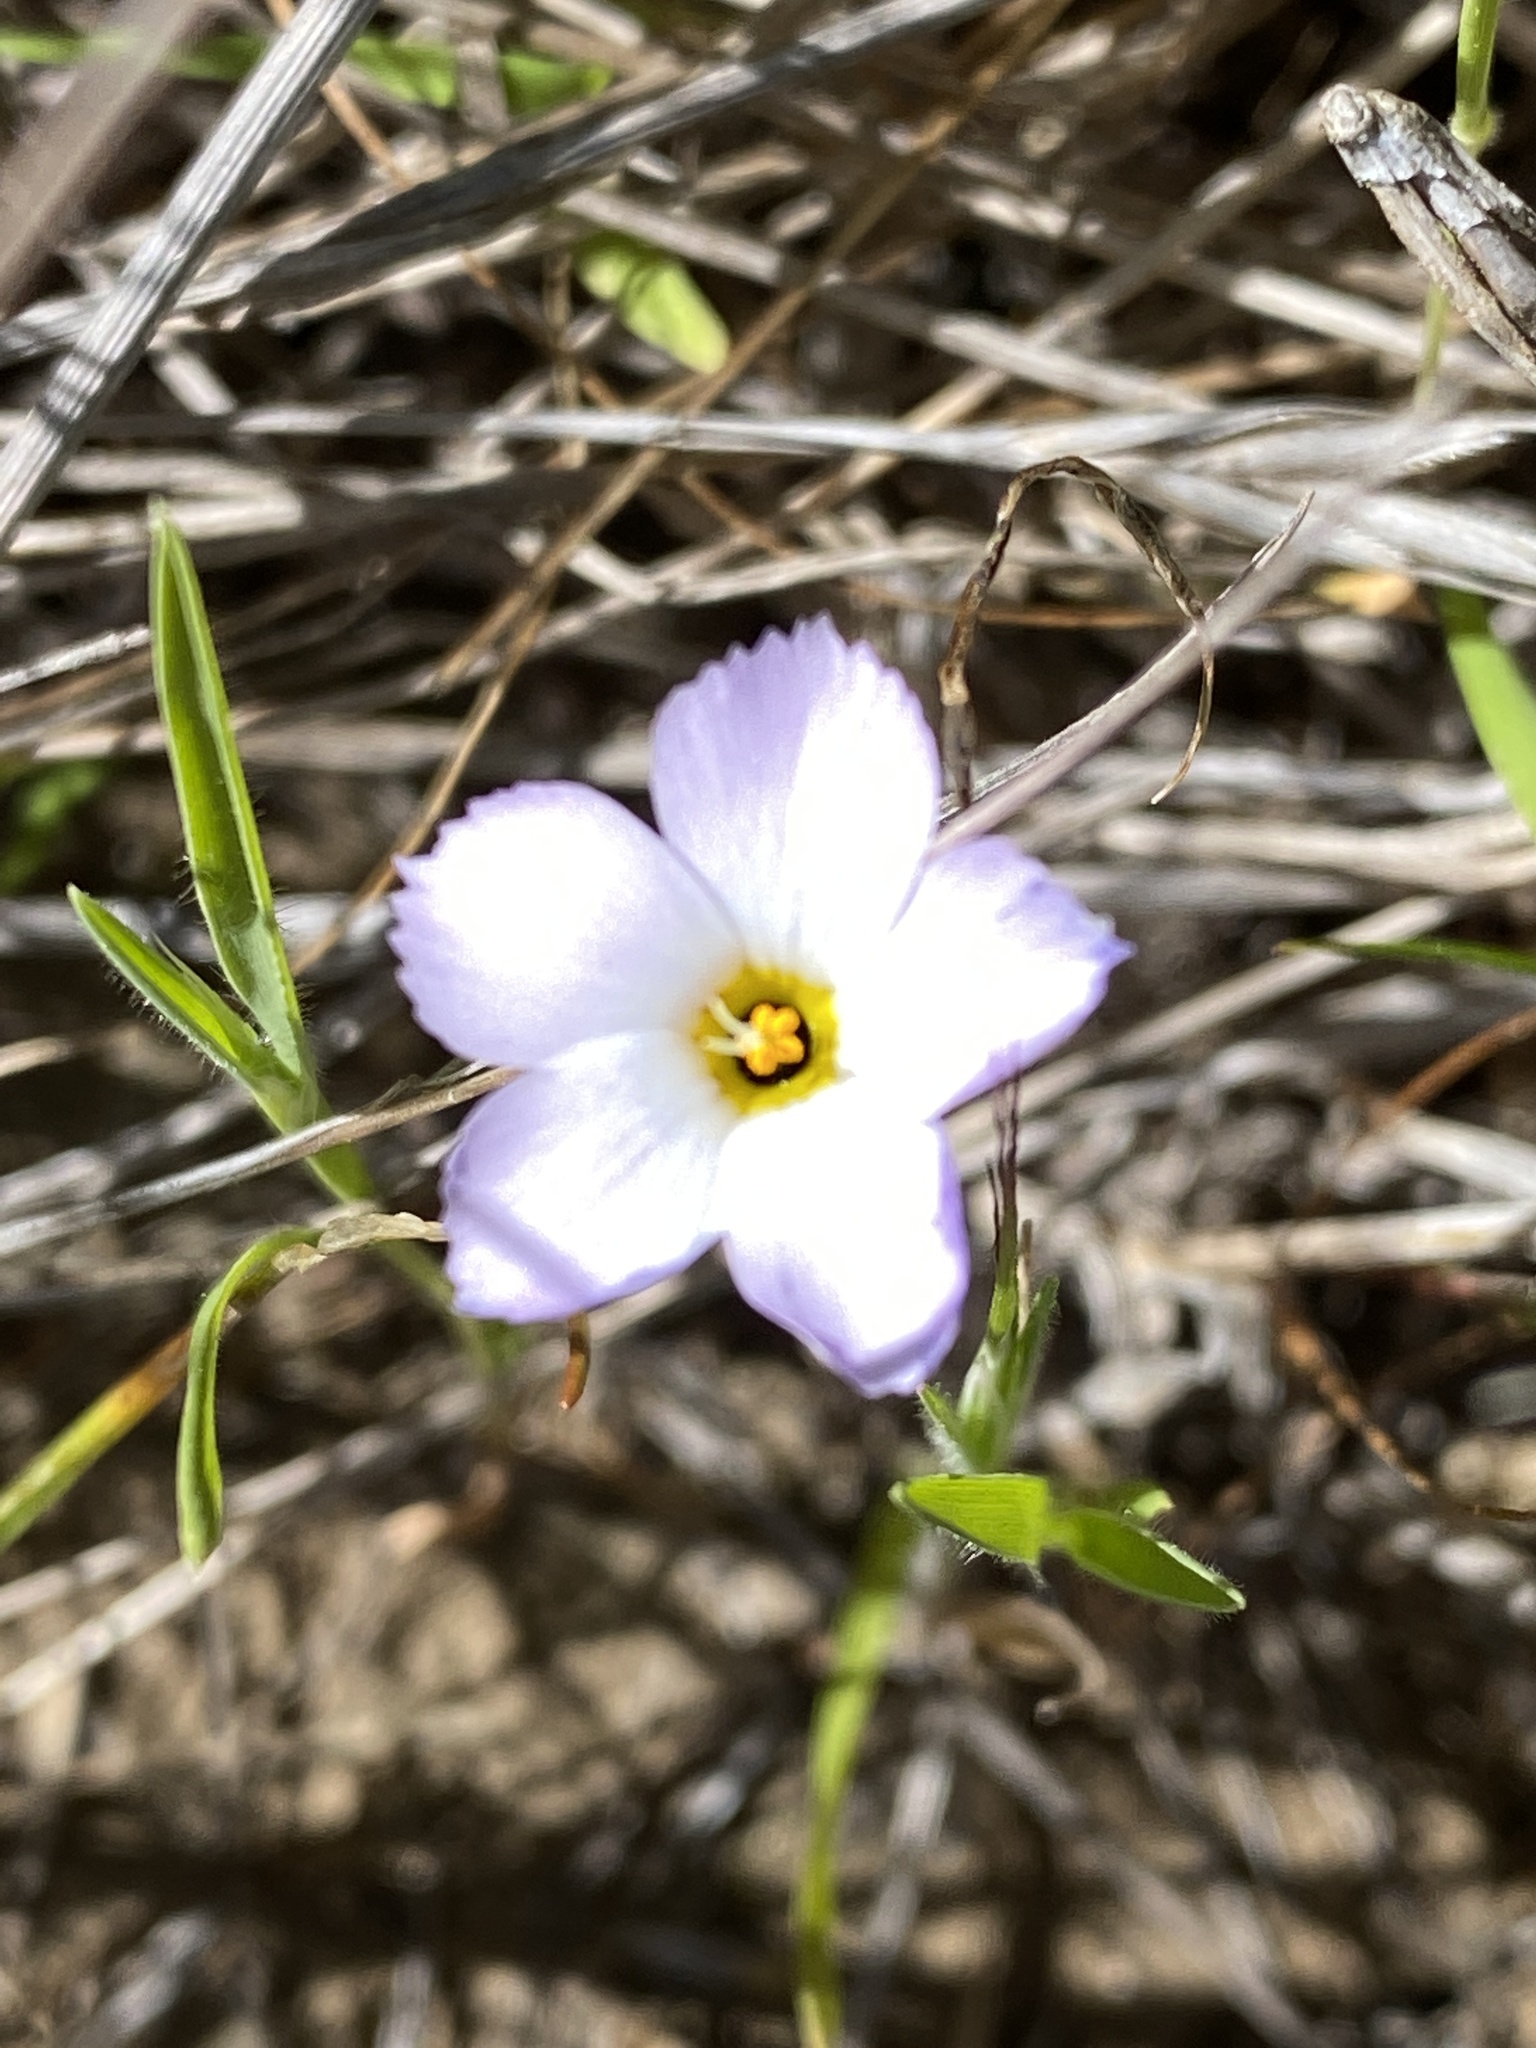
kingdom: Plantae
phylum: Tracheophyta
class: Magnoliopsida
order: Ericales
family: Polemoniaceae
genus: Linanthus
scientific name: Linanthus dianthiflorus
